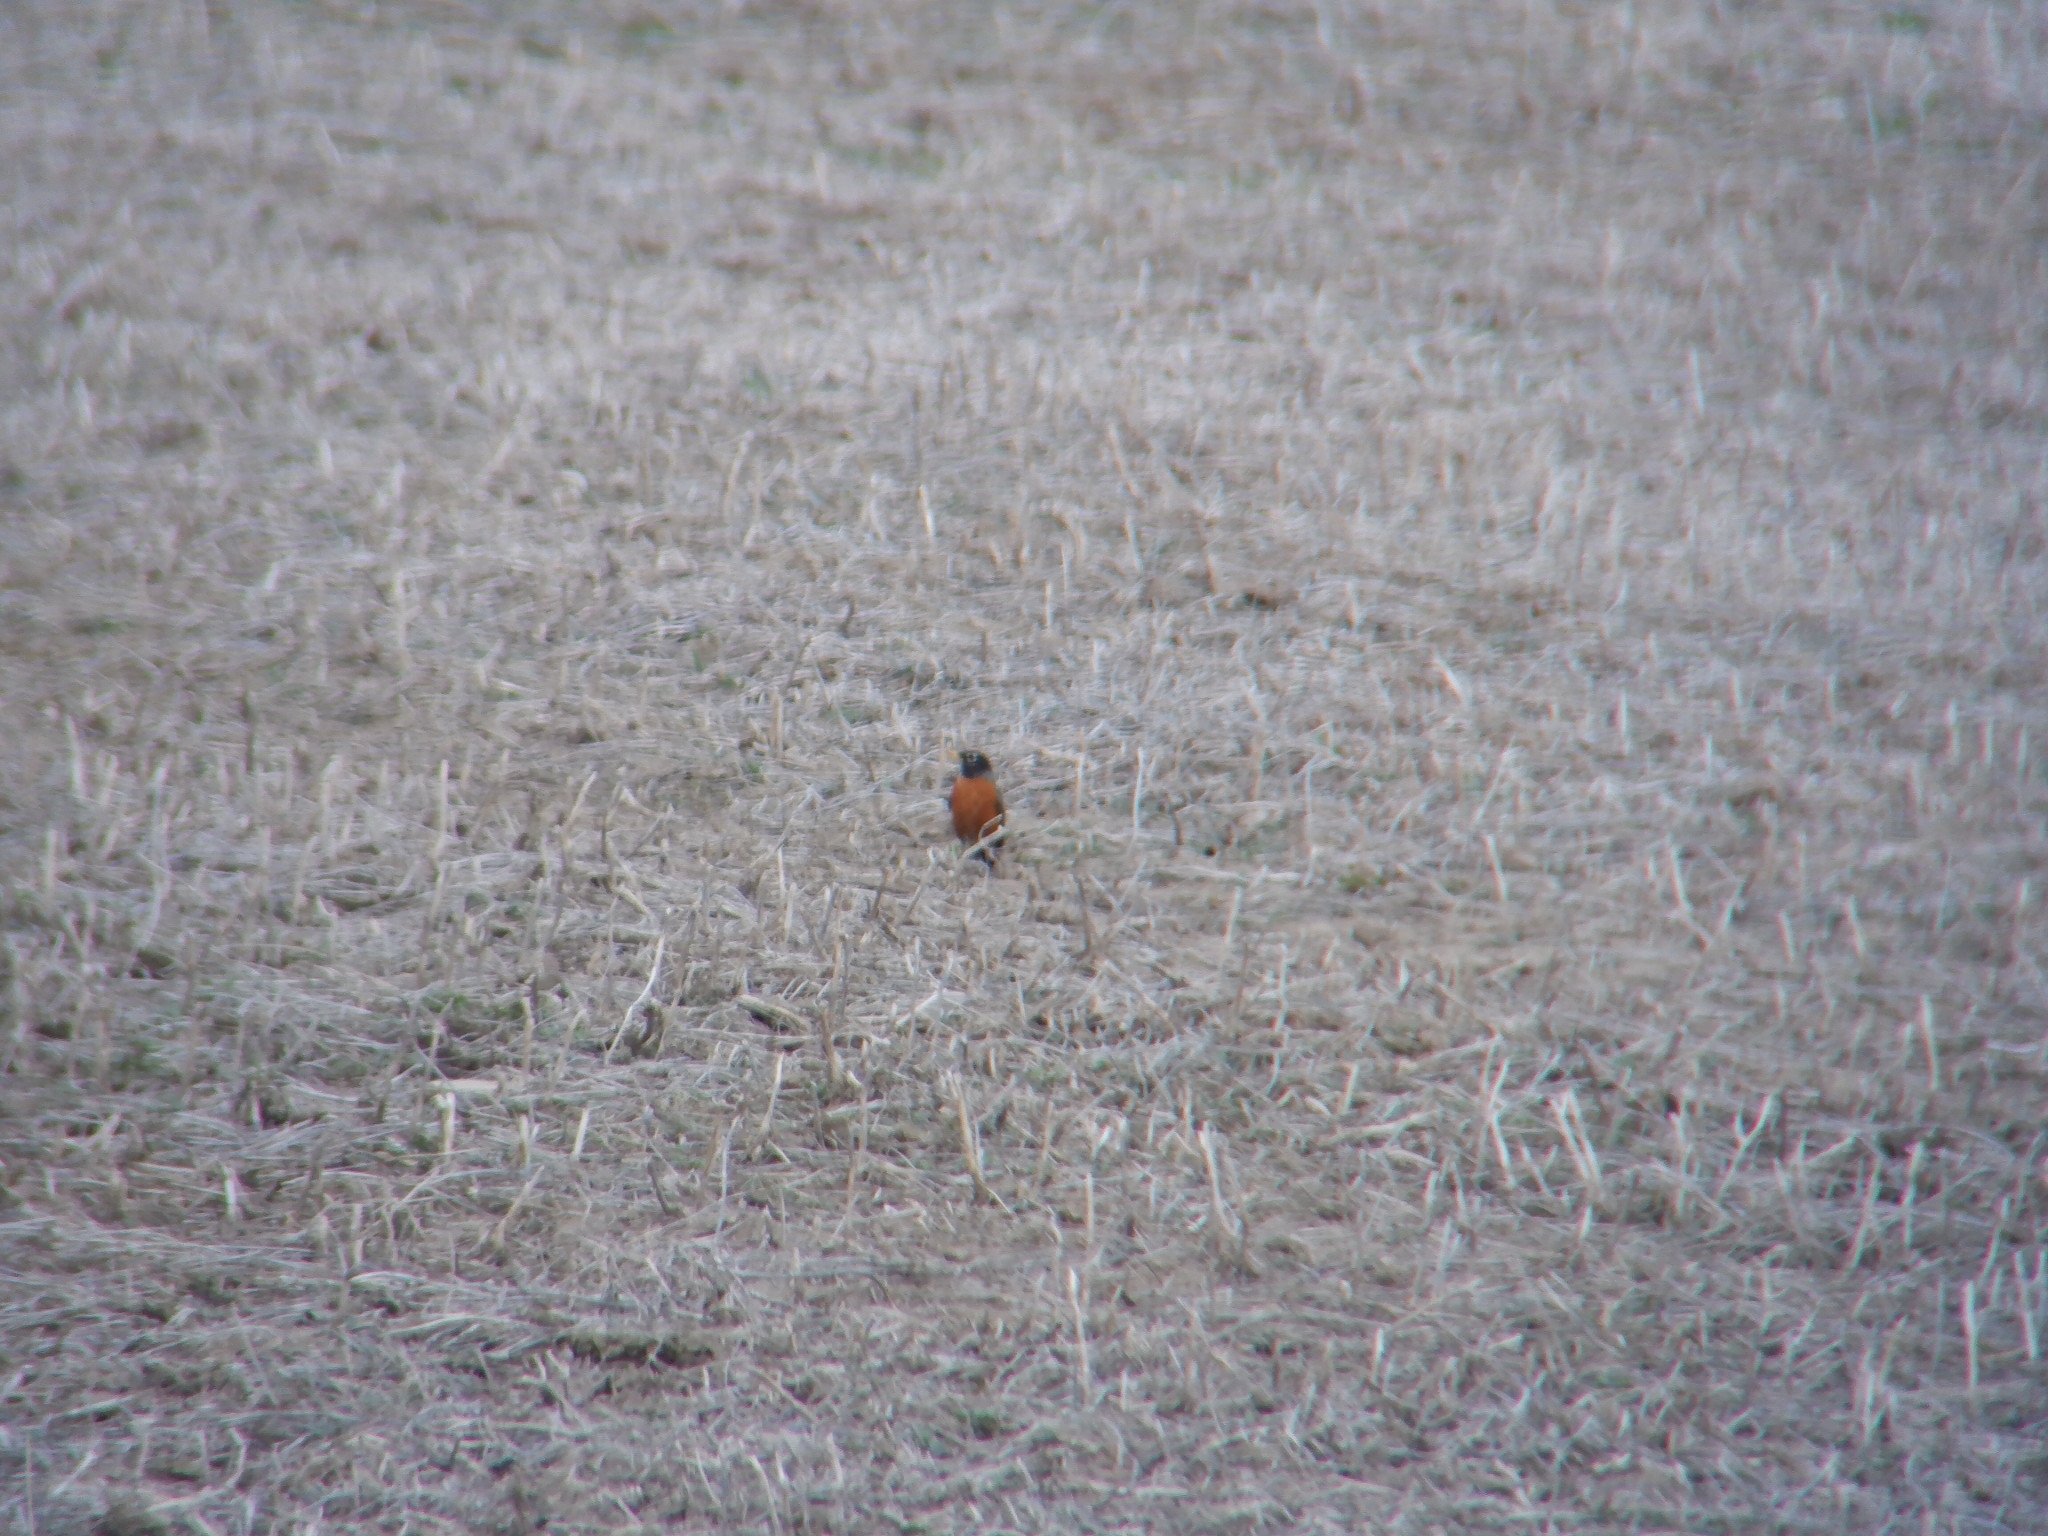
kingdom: Animalia
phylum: Chordata
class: Aves
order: Passeriformes
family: Turdidae
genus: Turdus
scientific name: Turdus migratorius
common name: American robin
